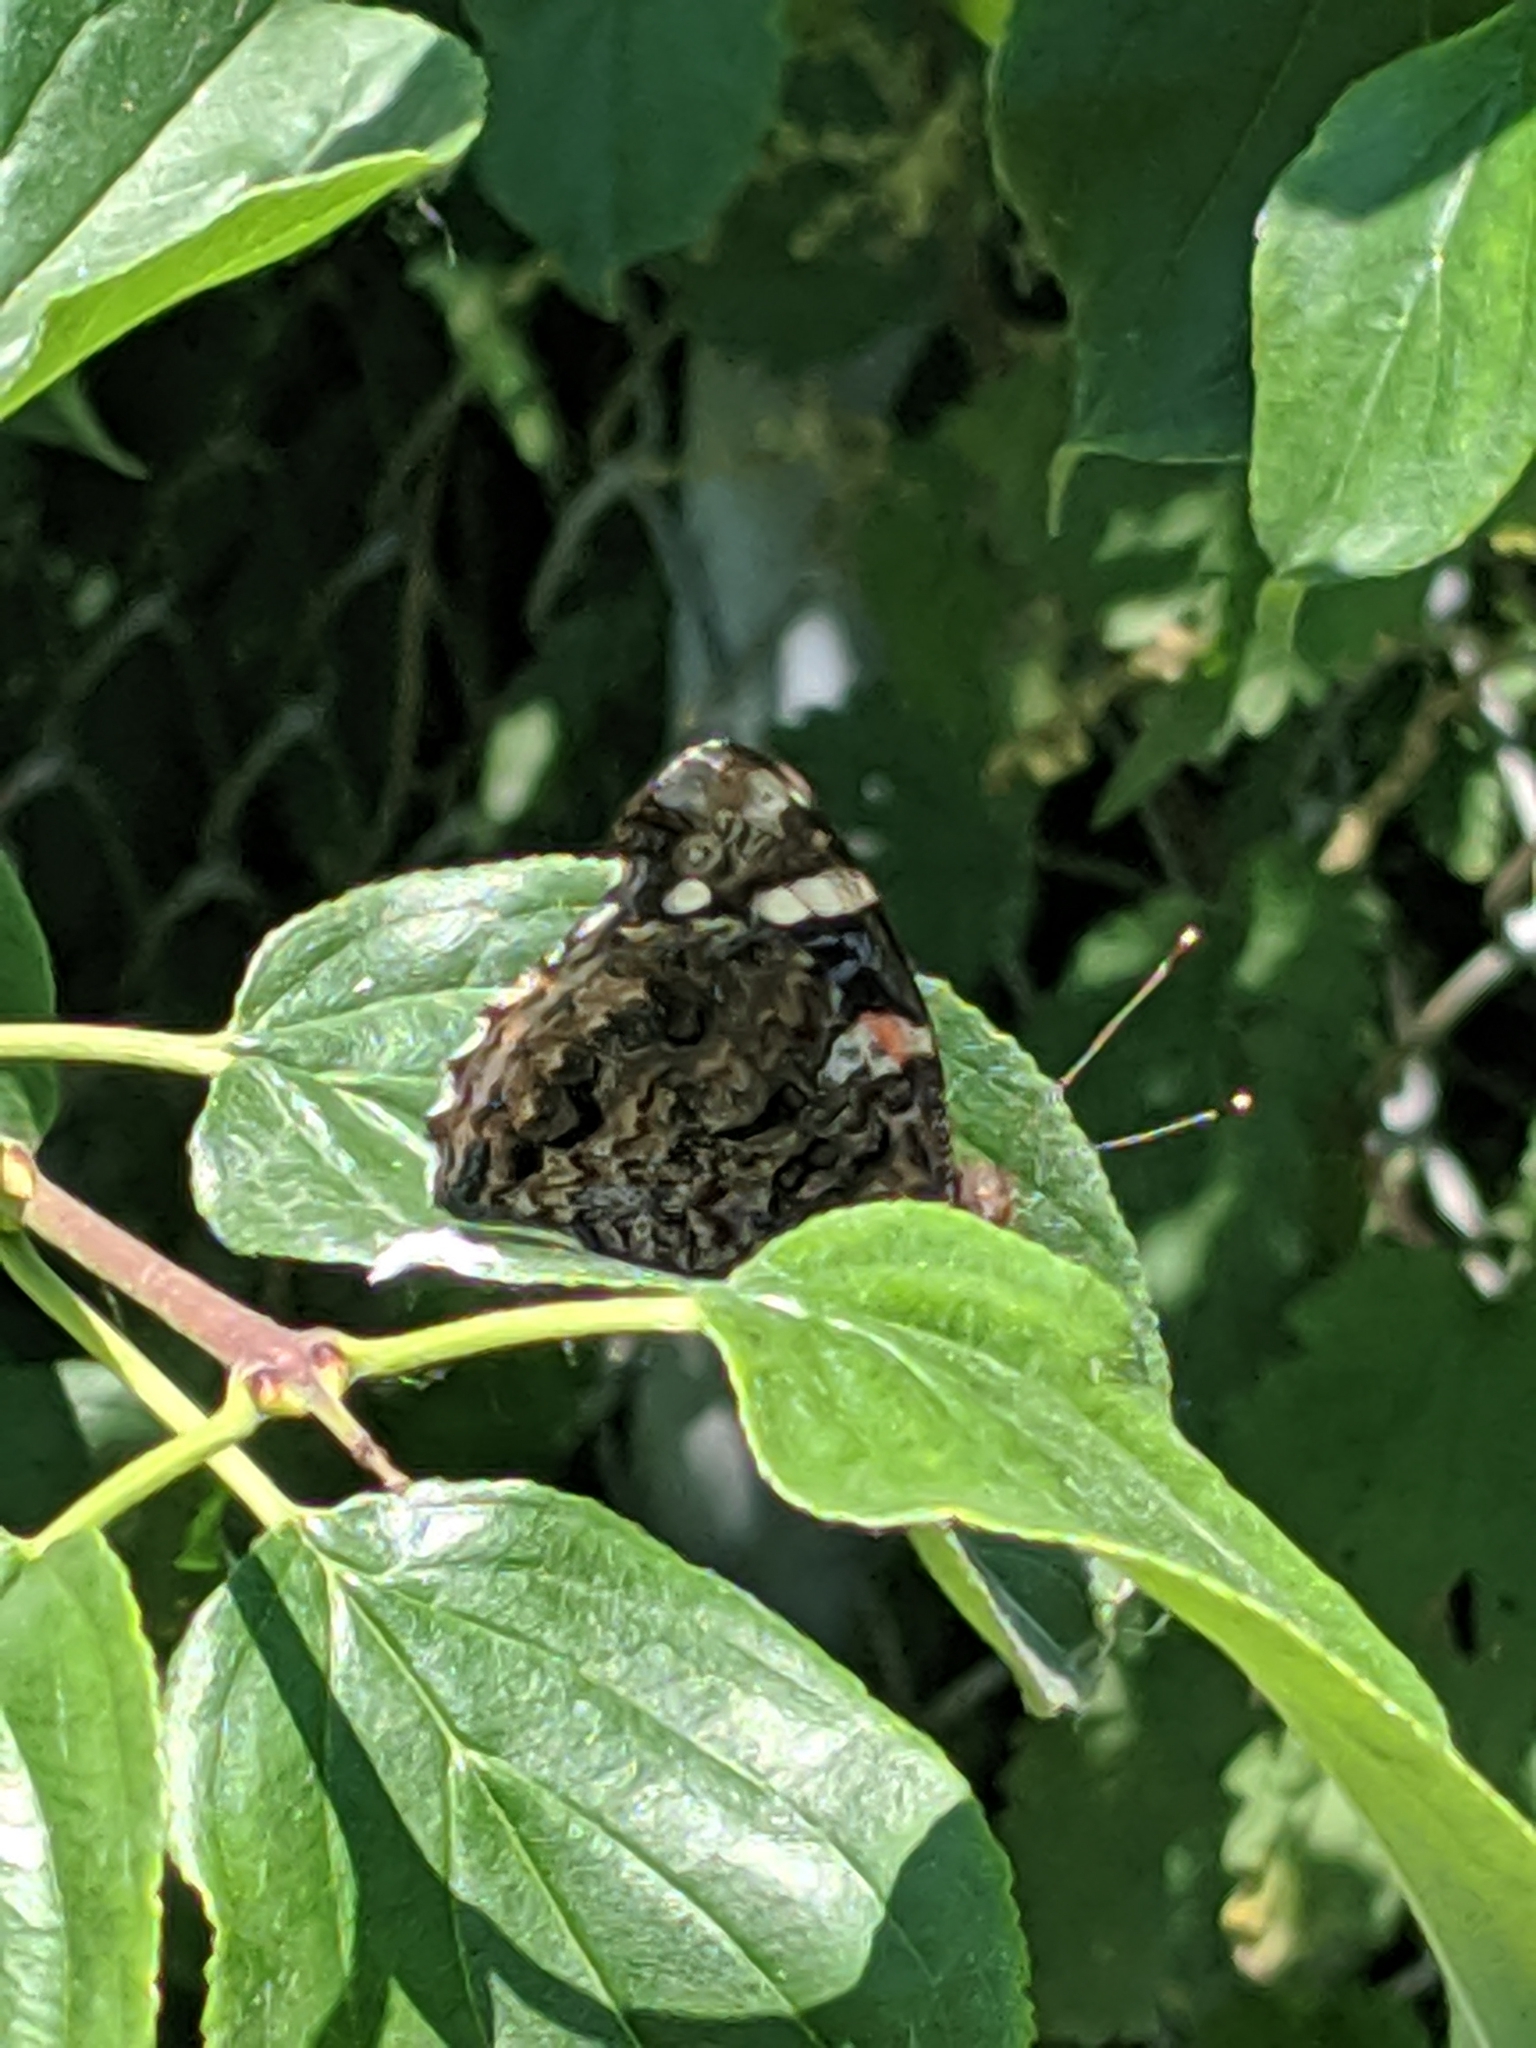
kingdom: Animalia
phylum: Arthropoda
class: Insecta
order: Lepidoptera
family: Nymphalidae
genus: Vanessa
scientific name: Vanessa atalanta
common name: Red admiral
